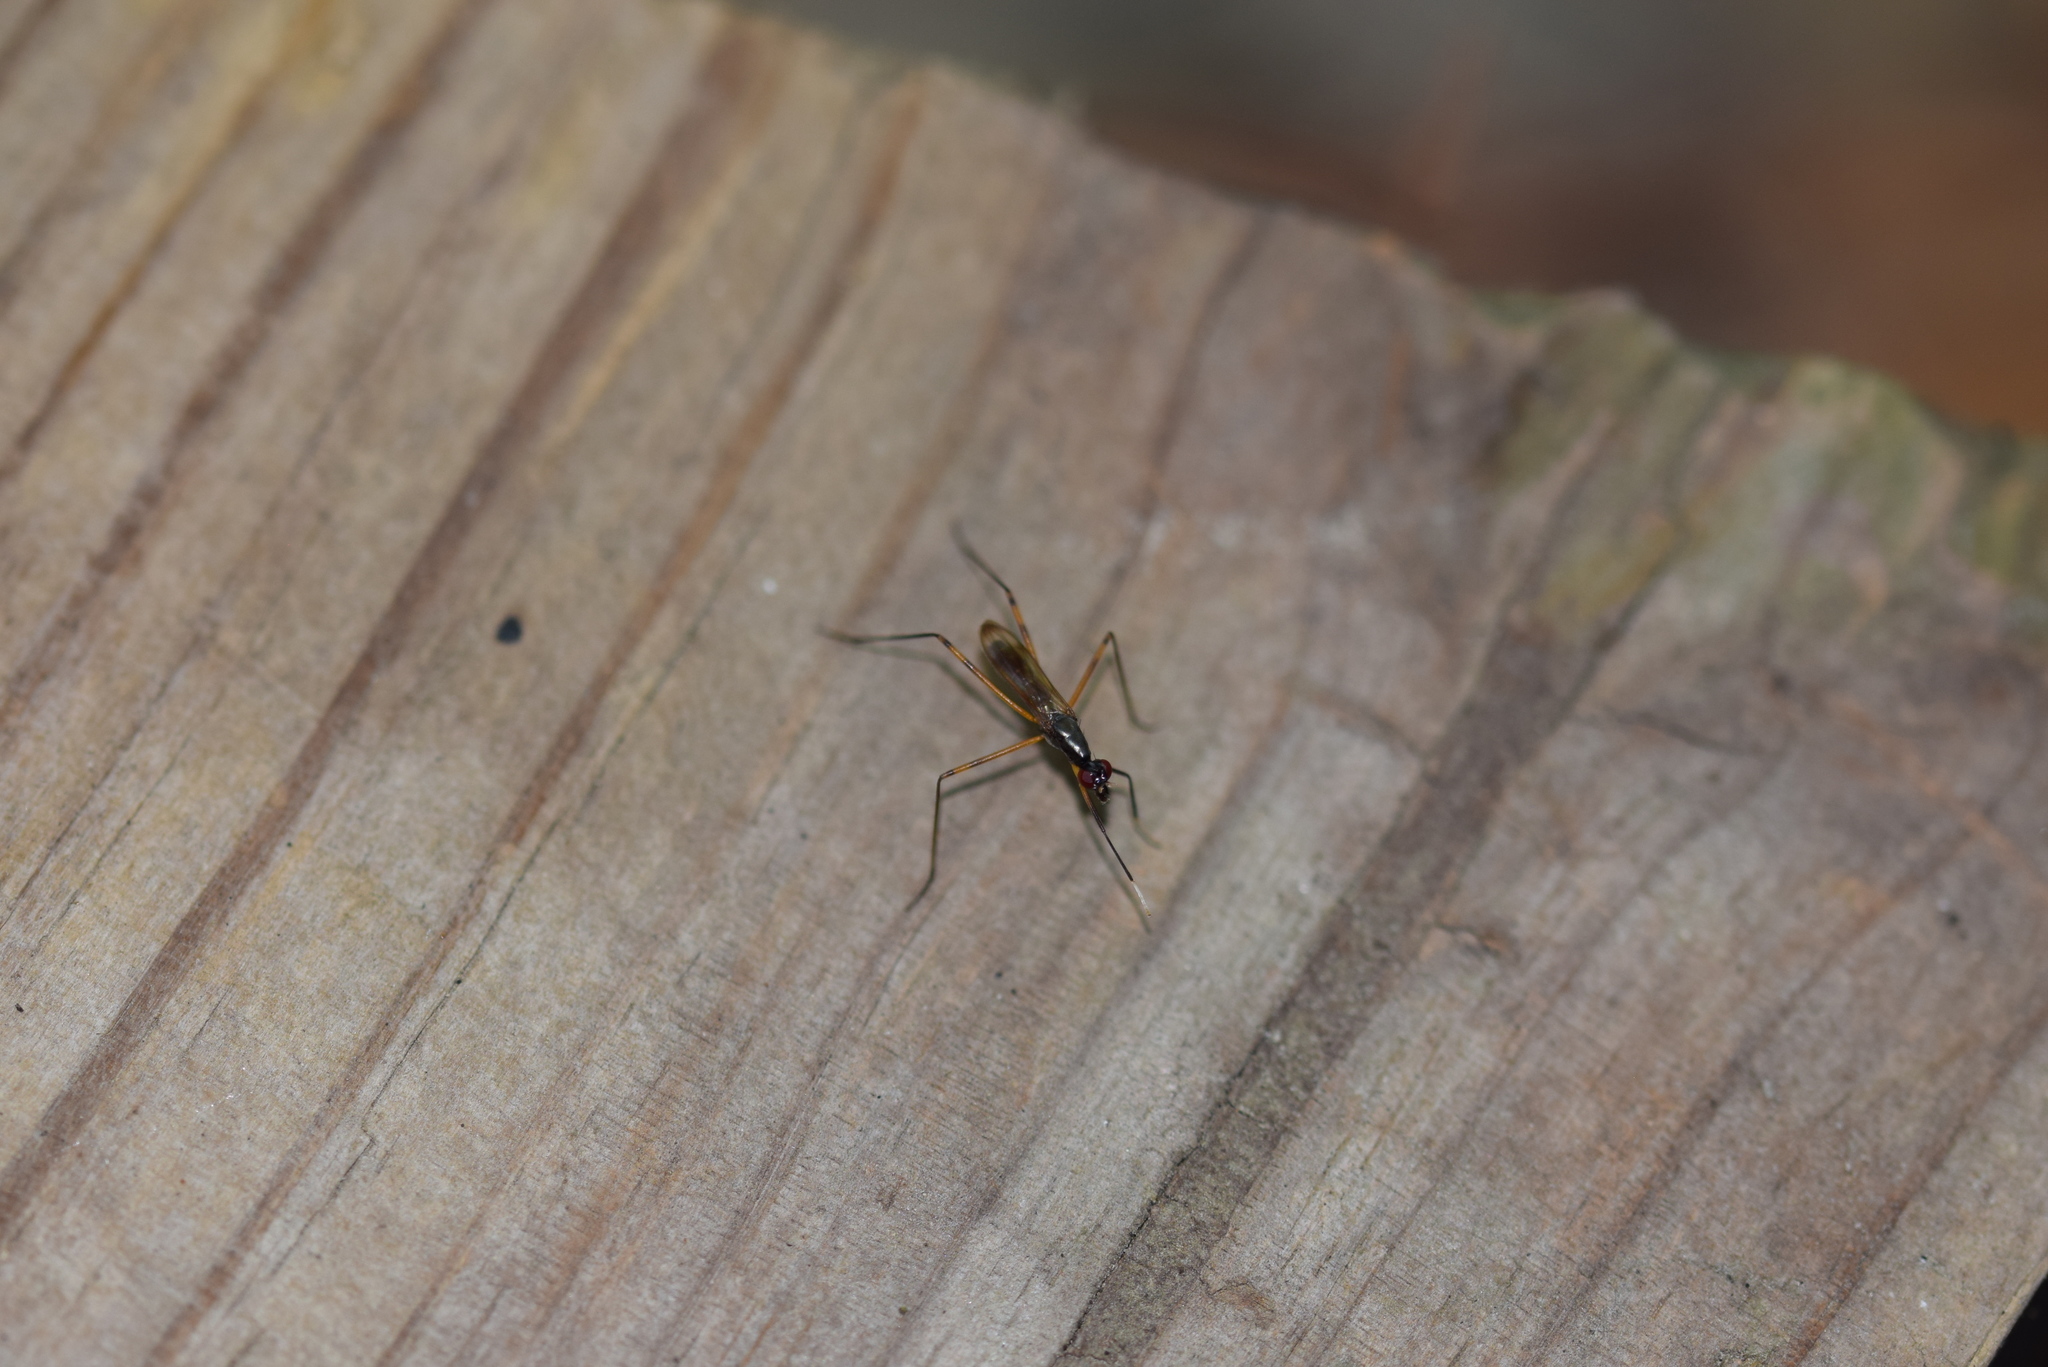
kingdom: Animalia
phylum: Arthropoda
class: Insecta
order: Diptera
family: Micropezidae
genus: Rainieria
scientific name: Rainieria antennaepes
